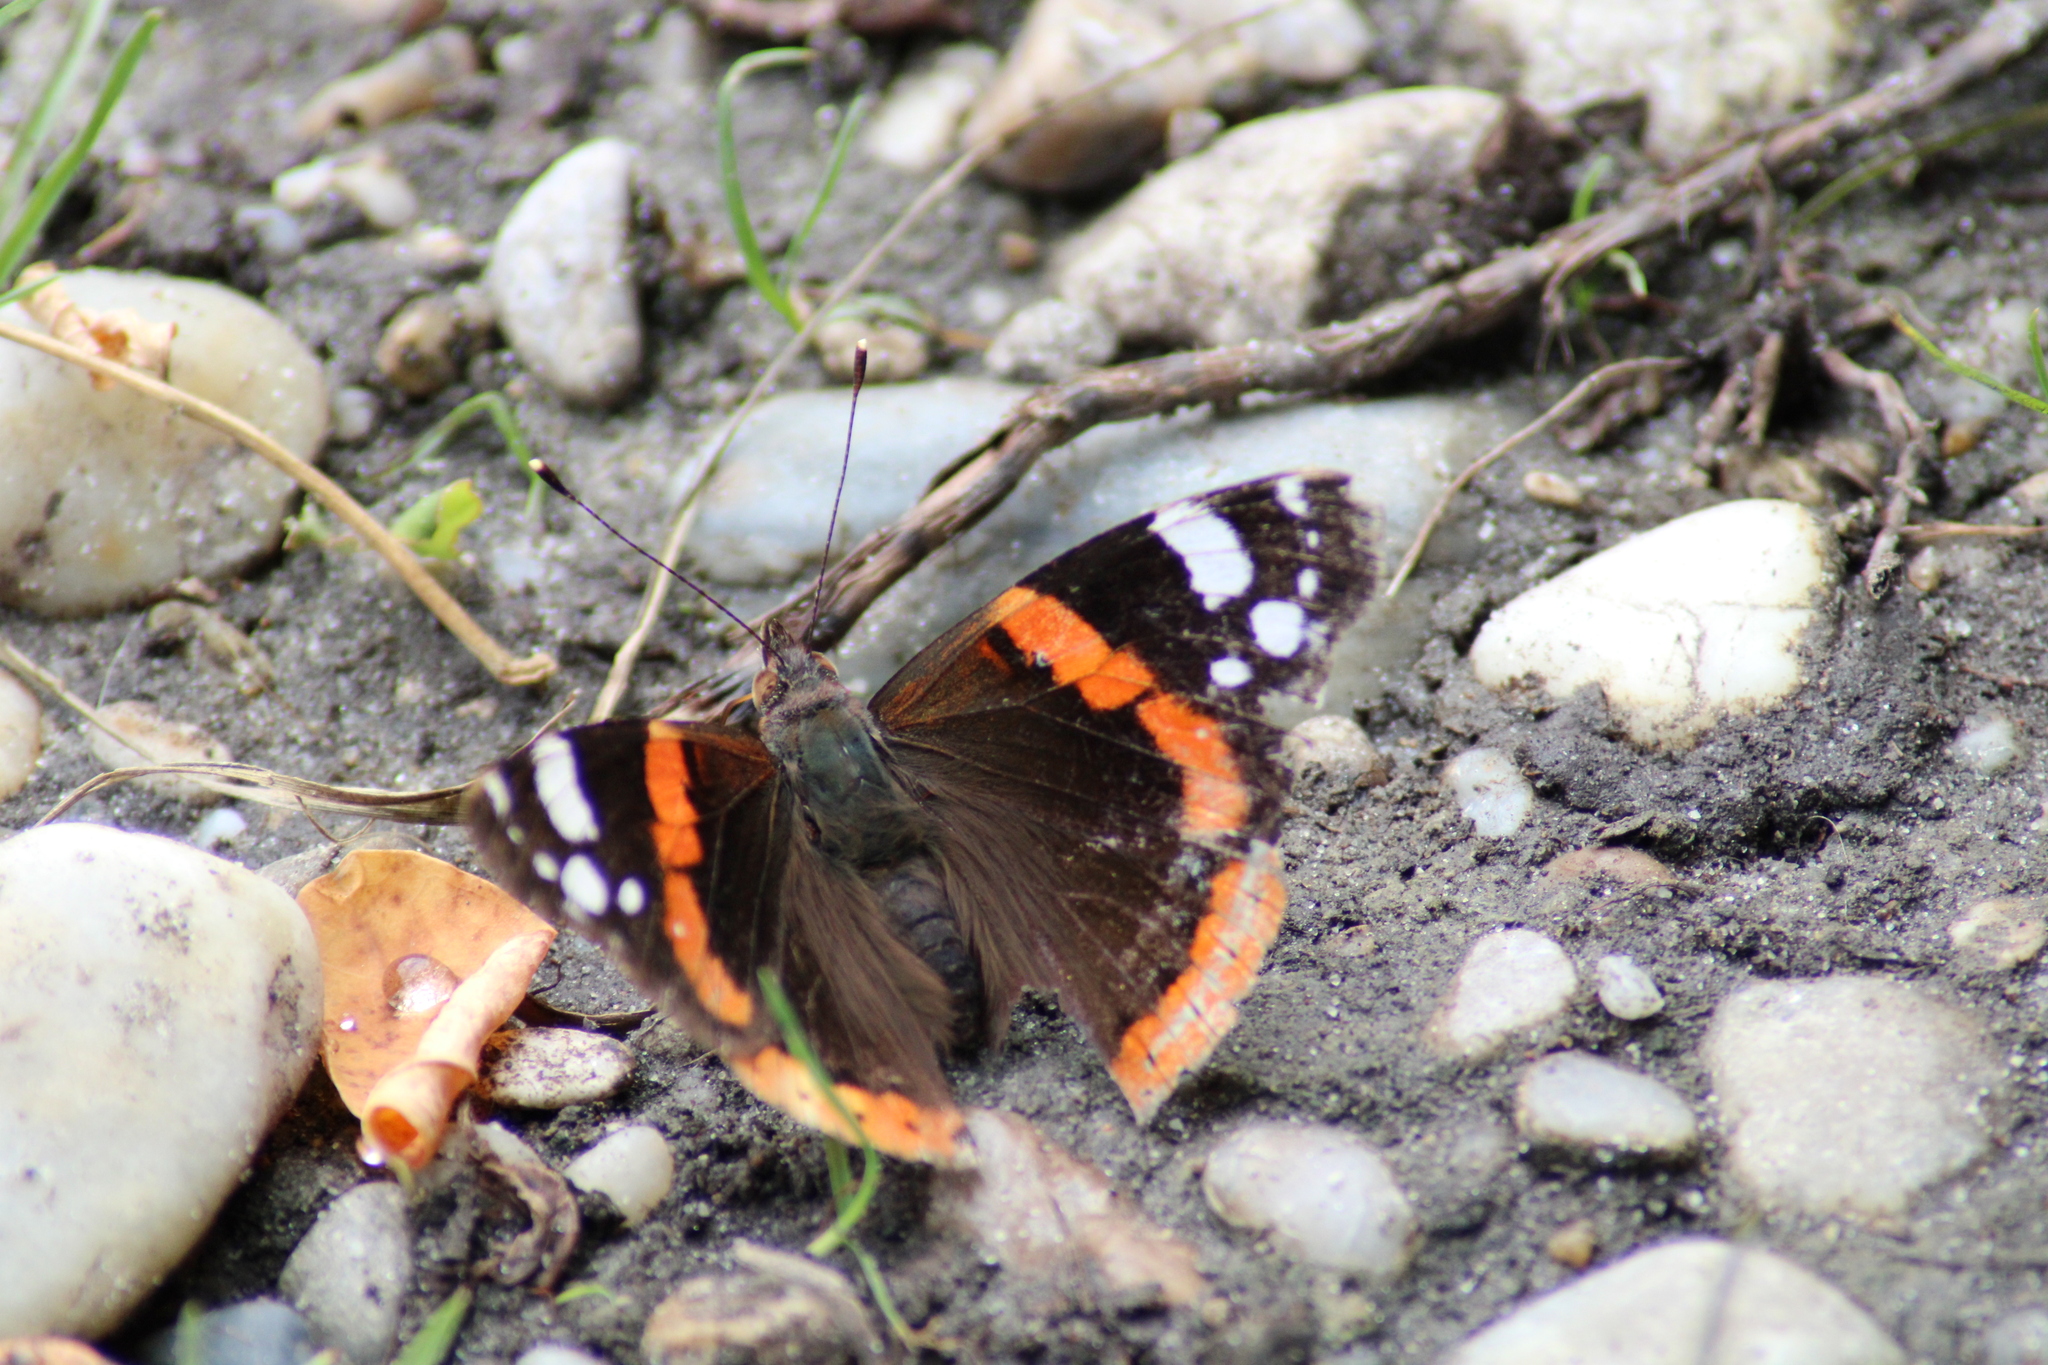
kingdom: Animalia
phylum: Arthropoda
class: Insecta
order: Lepidoptera
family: Nymphalidae
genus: Vanessa
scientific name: Vanessa atalanta
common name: Red admiral
